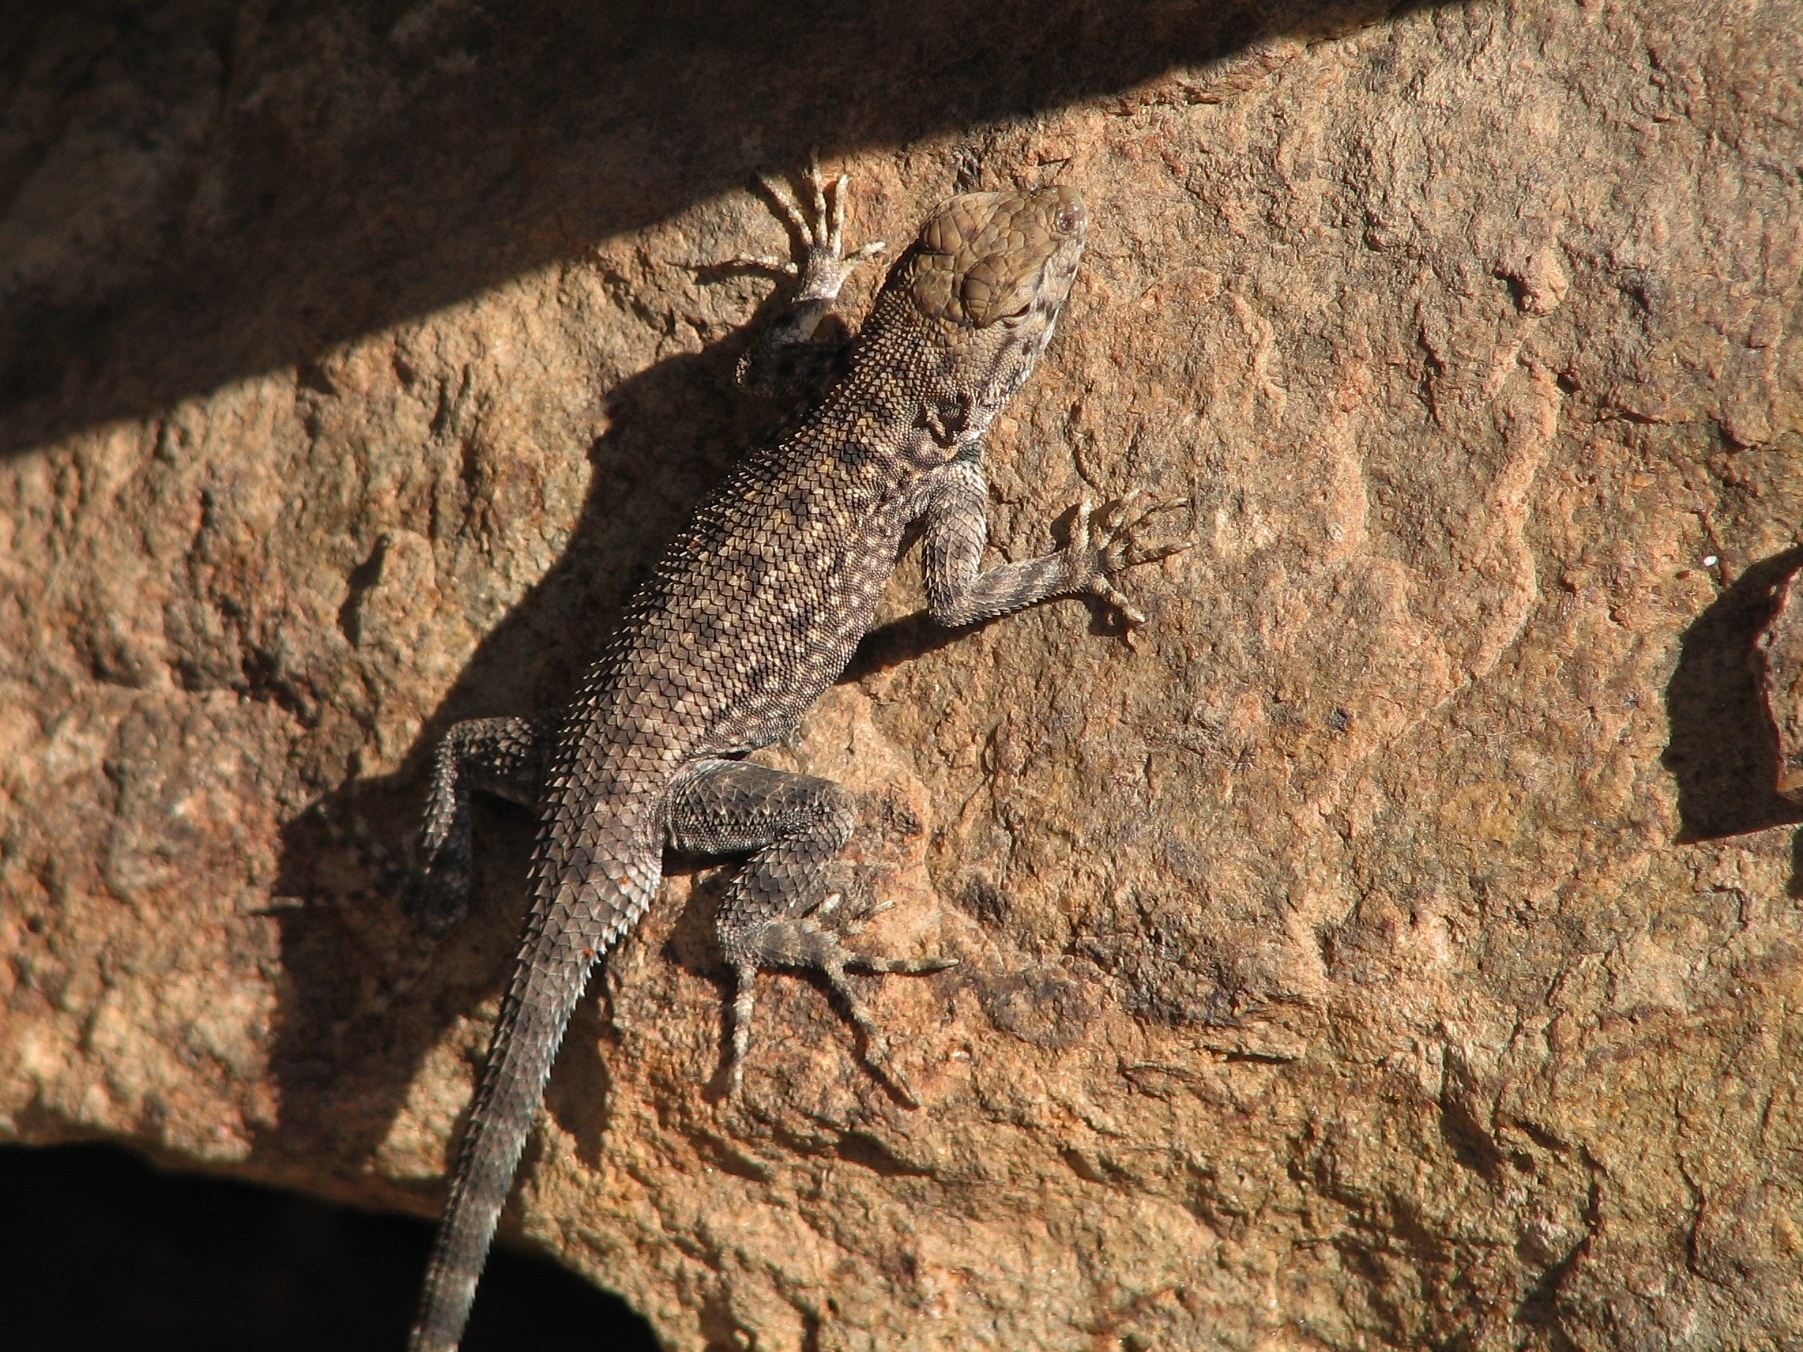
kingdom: Animalia
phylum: Chordata
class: Squamata
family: Phrynosomatidae
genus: Sceloporus
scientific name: Sceloporus merriami
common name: Canyon lizard
